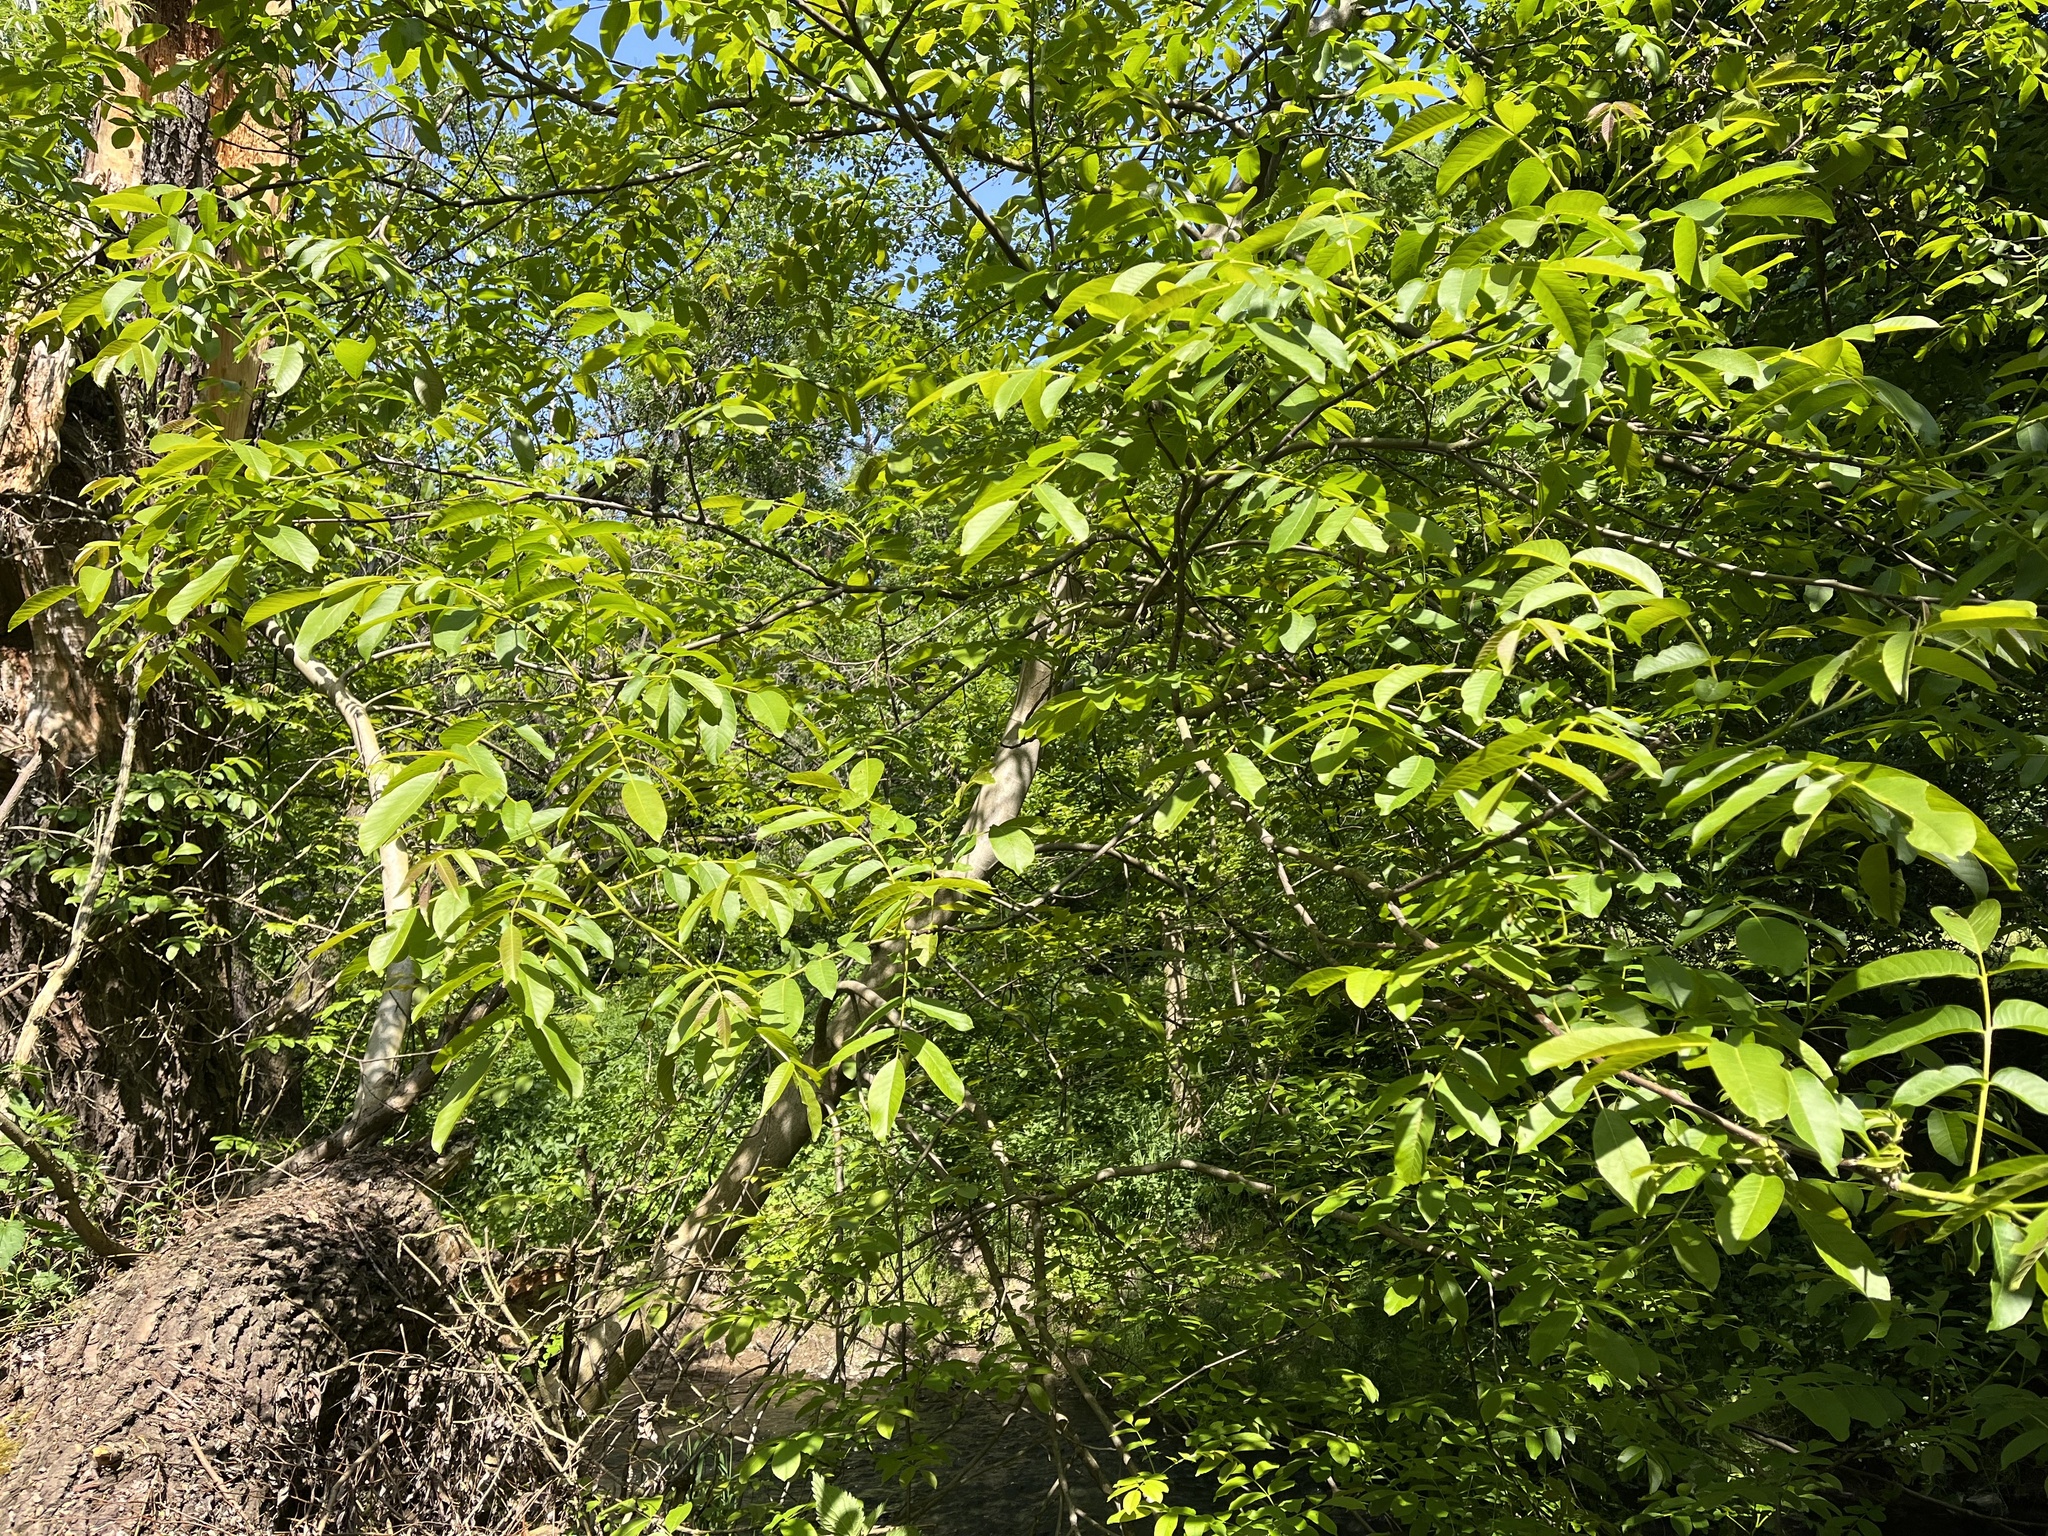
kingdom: Plantae
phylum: Tracheophyta
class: Magnoliopsida
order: Fagales
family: Juglandaceae
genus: Juglans
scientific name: Juglans regia
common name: Walnut
